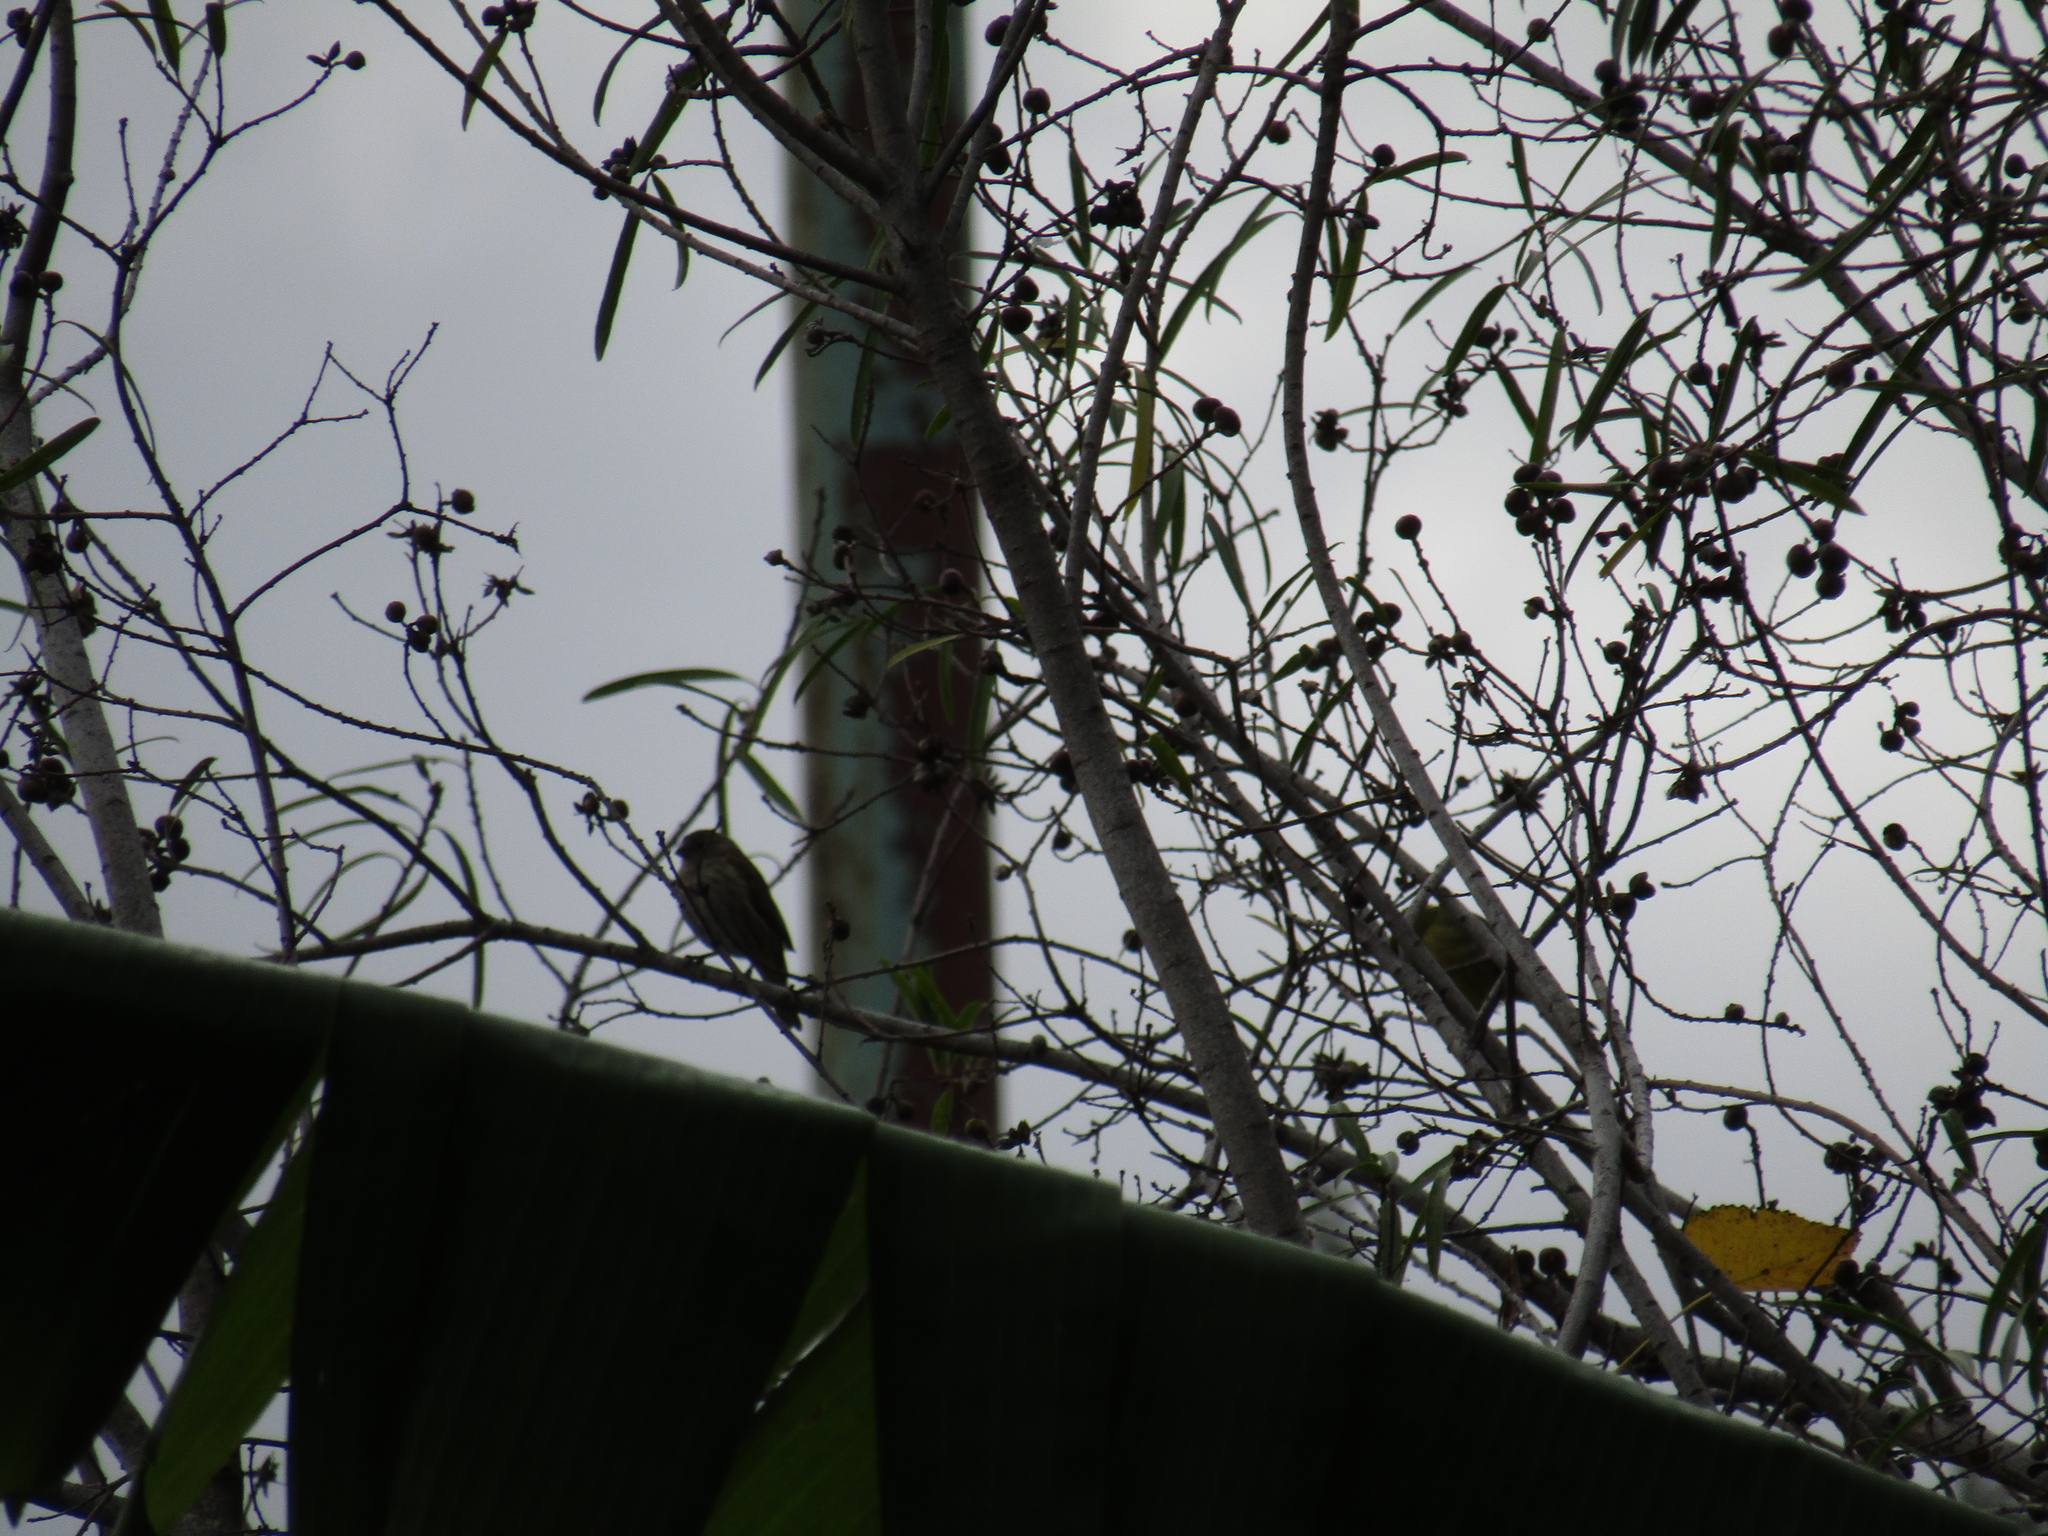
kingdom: Animalia
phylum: Chordata
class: Aves
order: Passeriformes
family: Thraupidae
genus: Sicalis
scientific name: Sicalis flaveola
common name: Saffron finch
